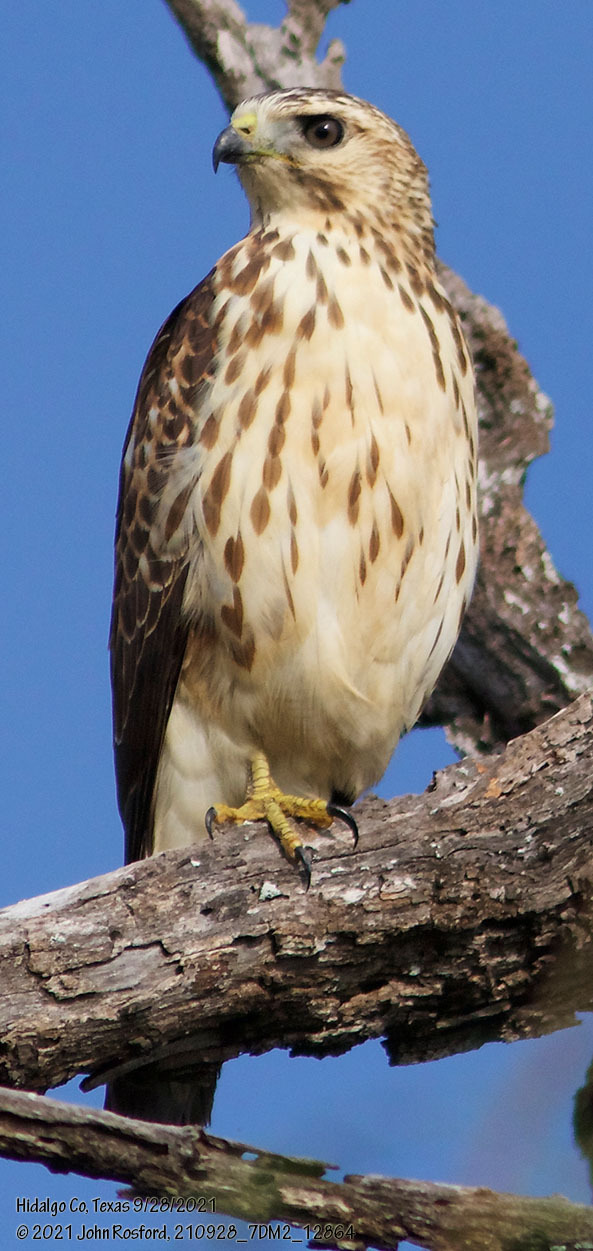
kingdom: Animalia
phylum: Chordata
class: Aves
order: Accipitriformes
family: Accipitridae
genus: Buteo
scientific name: Buteo platypterus
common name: Broad-winged hawk
